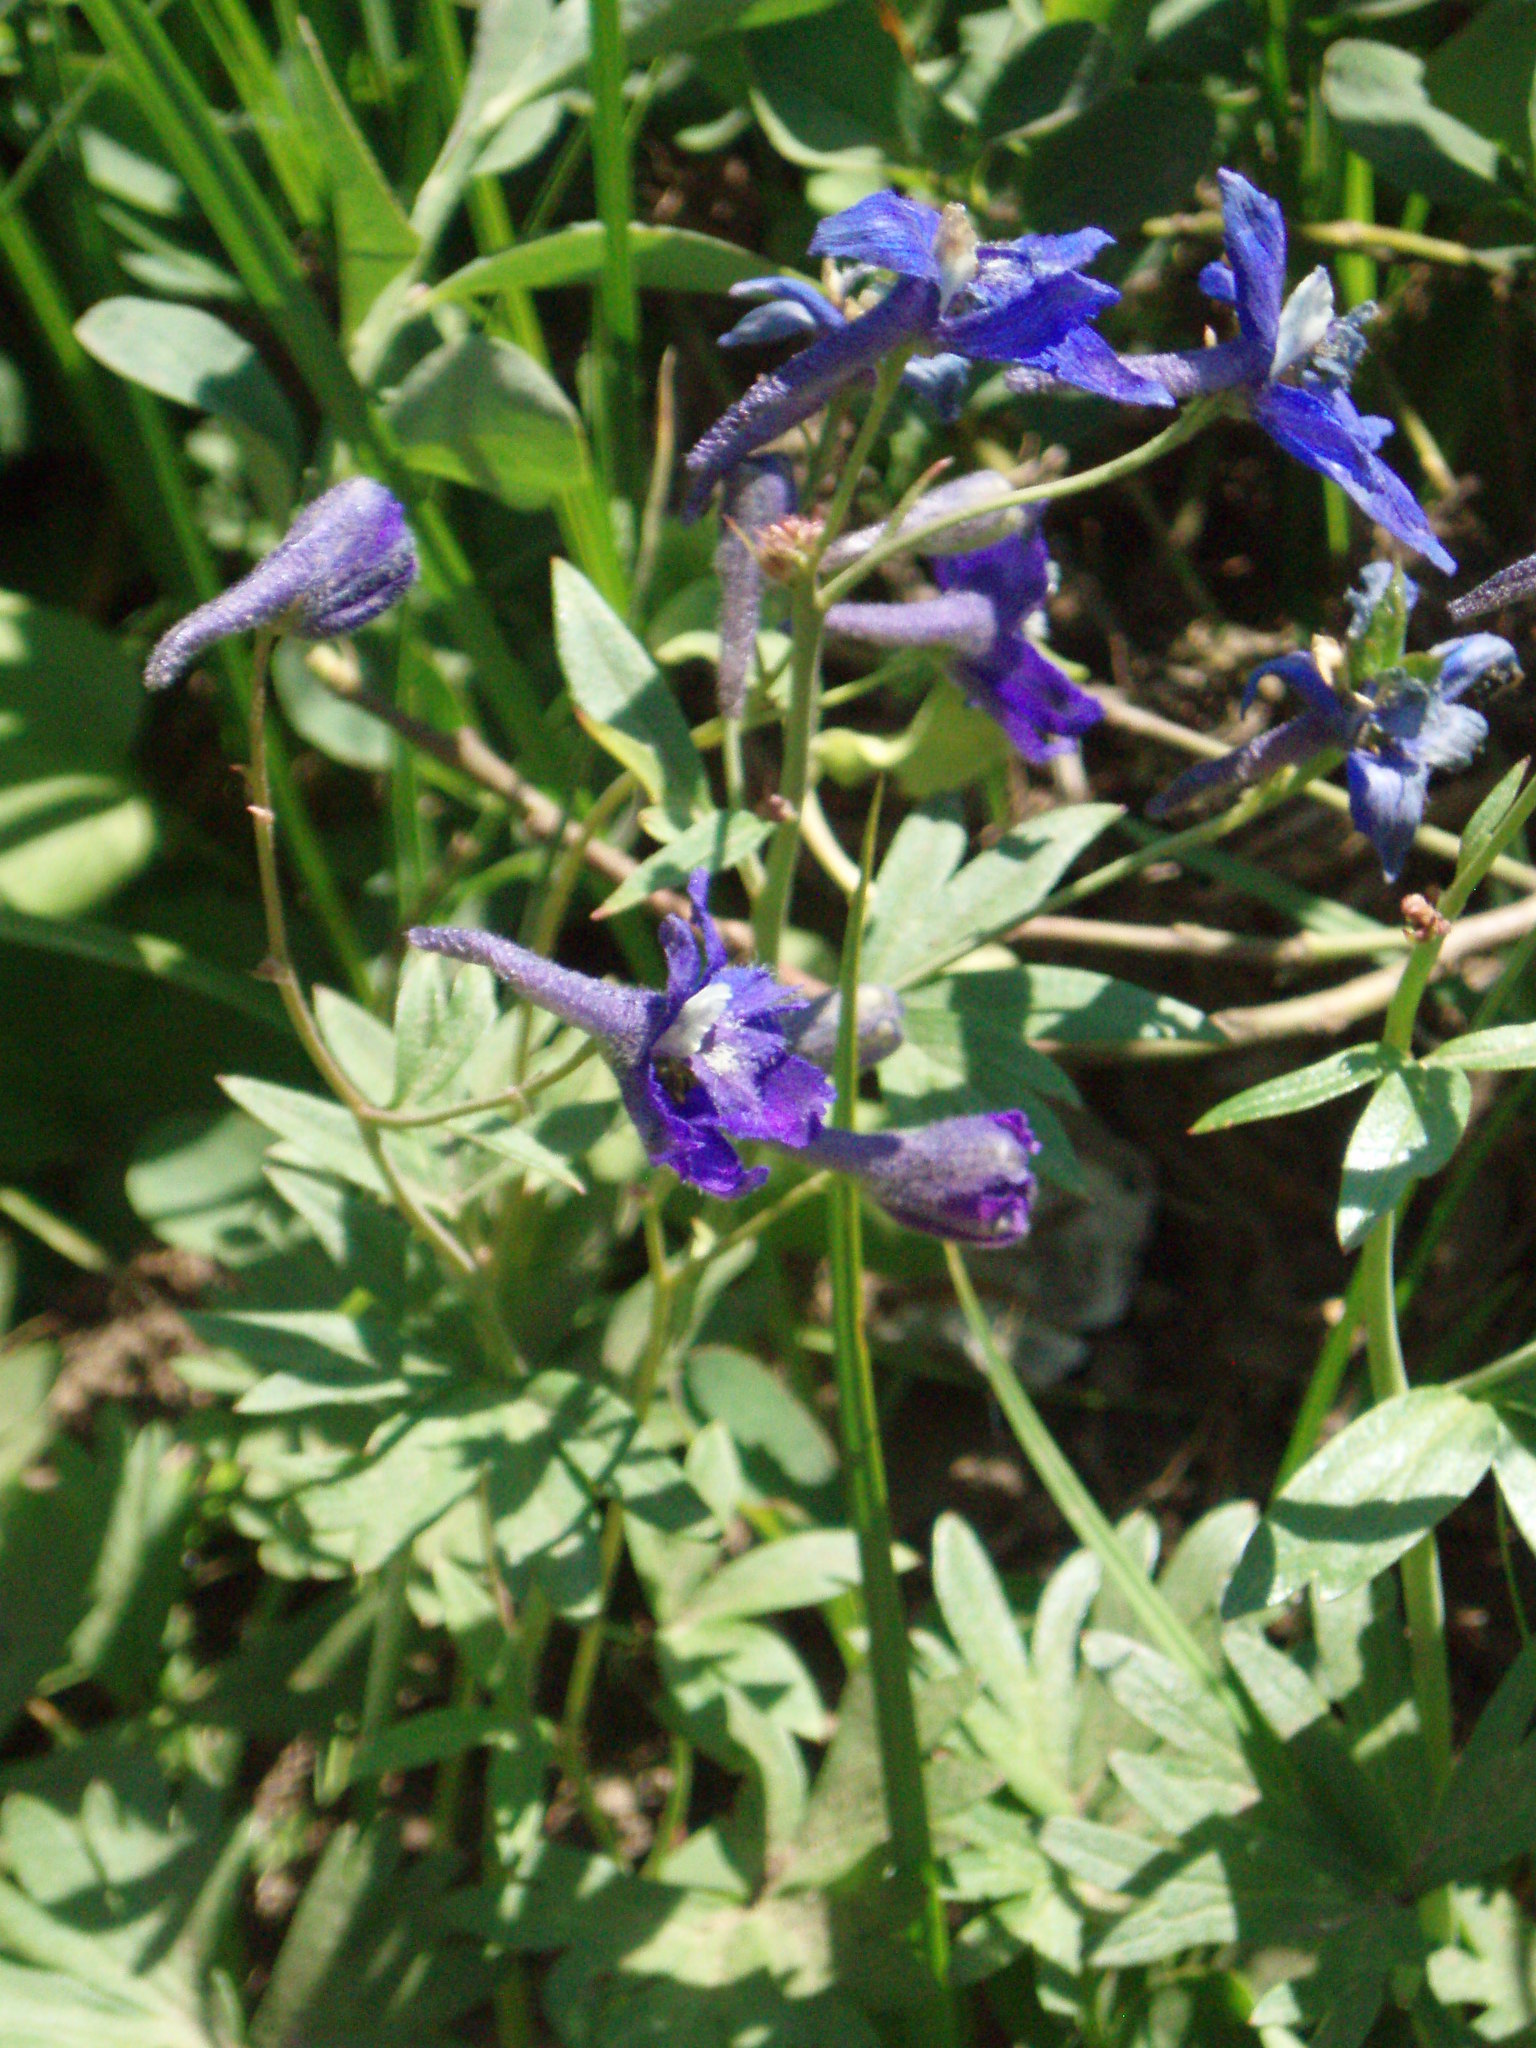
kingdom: Plantae
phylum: Tracheophyta
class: Magnoliopsida
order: Ranunculales
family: Ranunculaceae
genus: Delphinium
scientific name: Delphinium glareosum
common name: Olympic mountain larkspur
